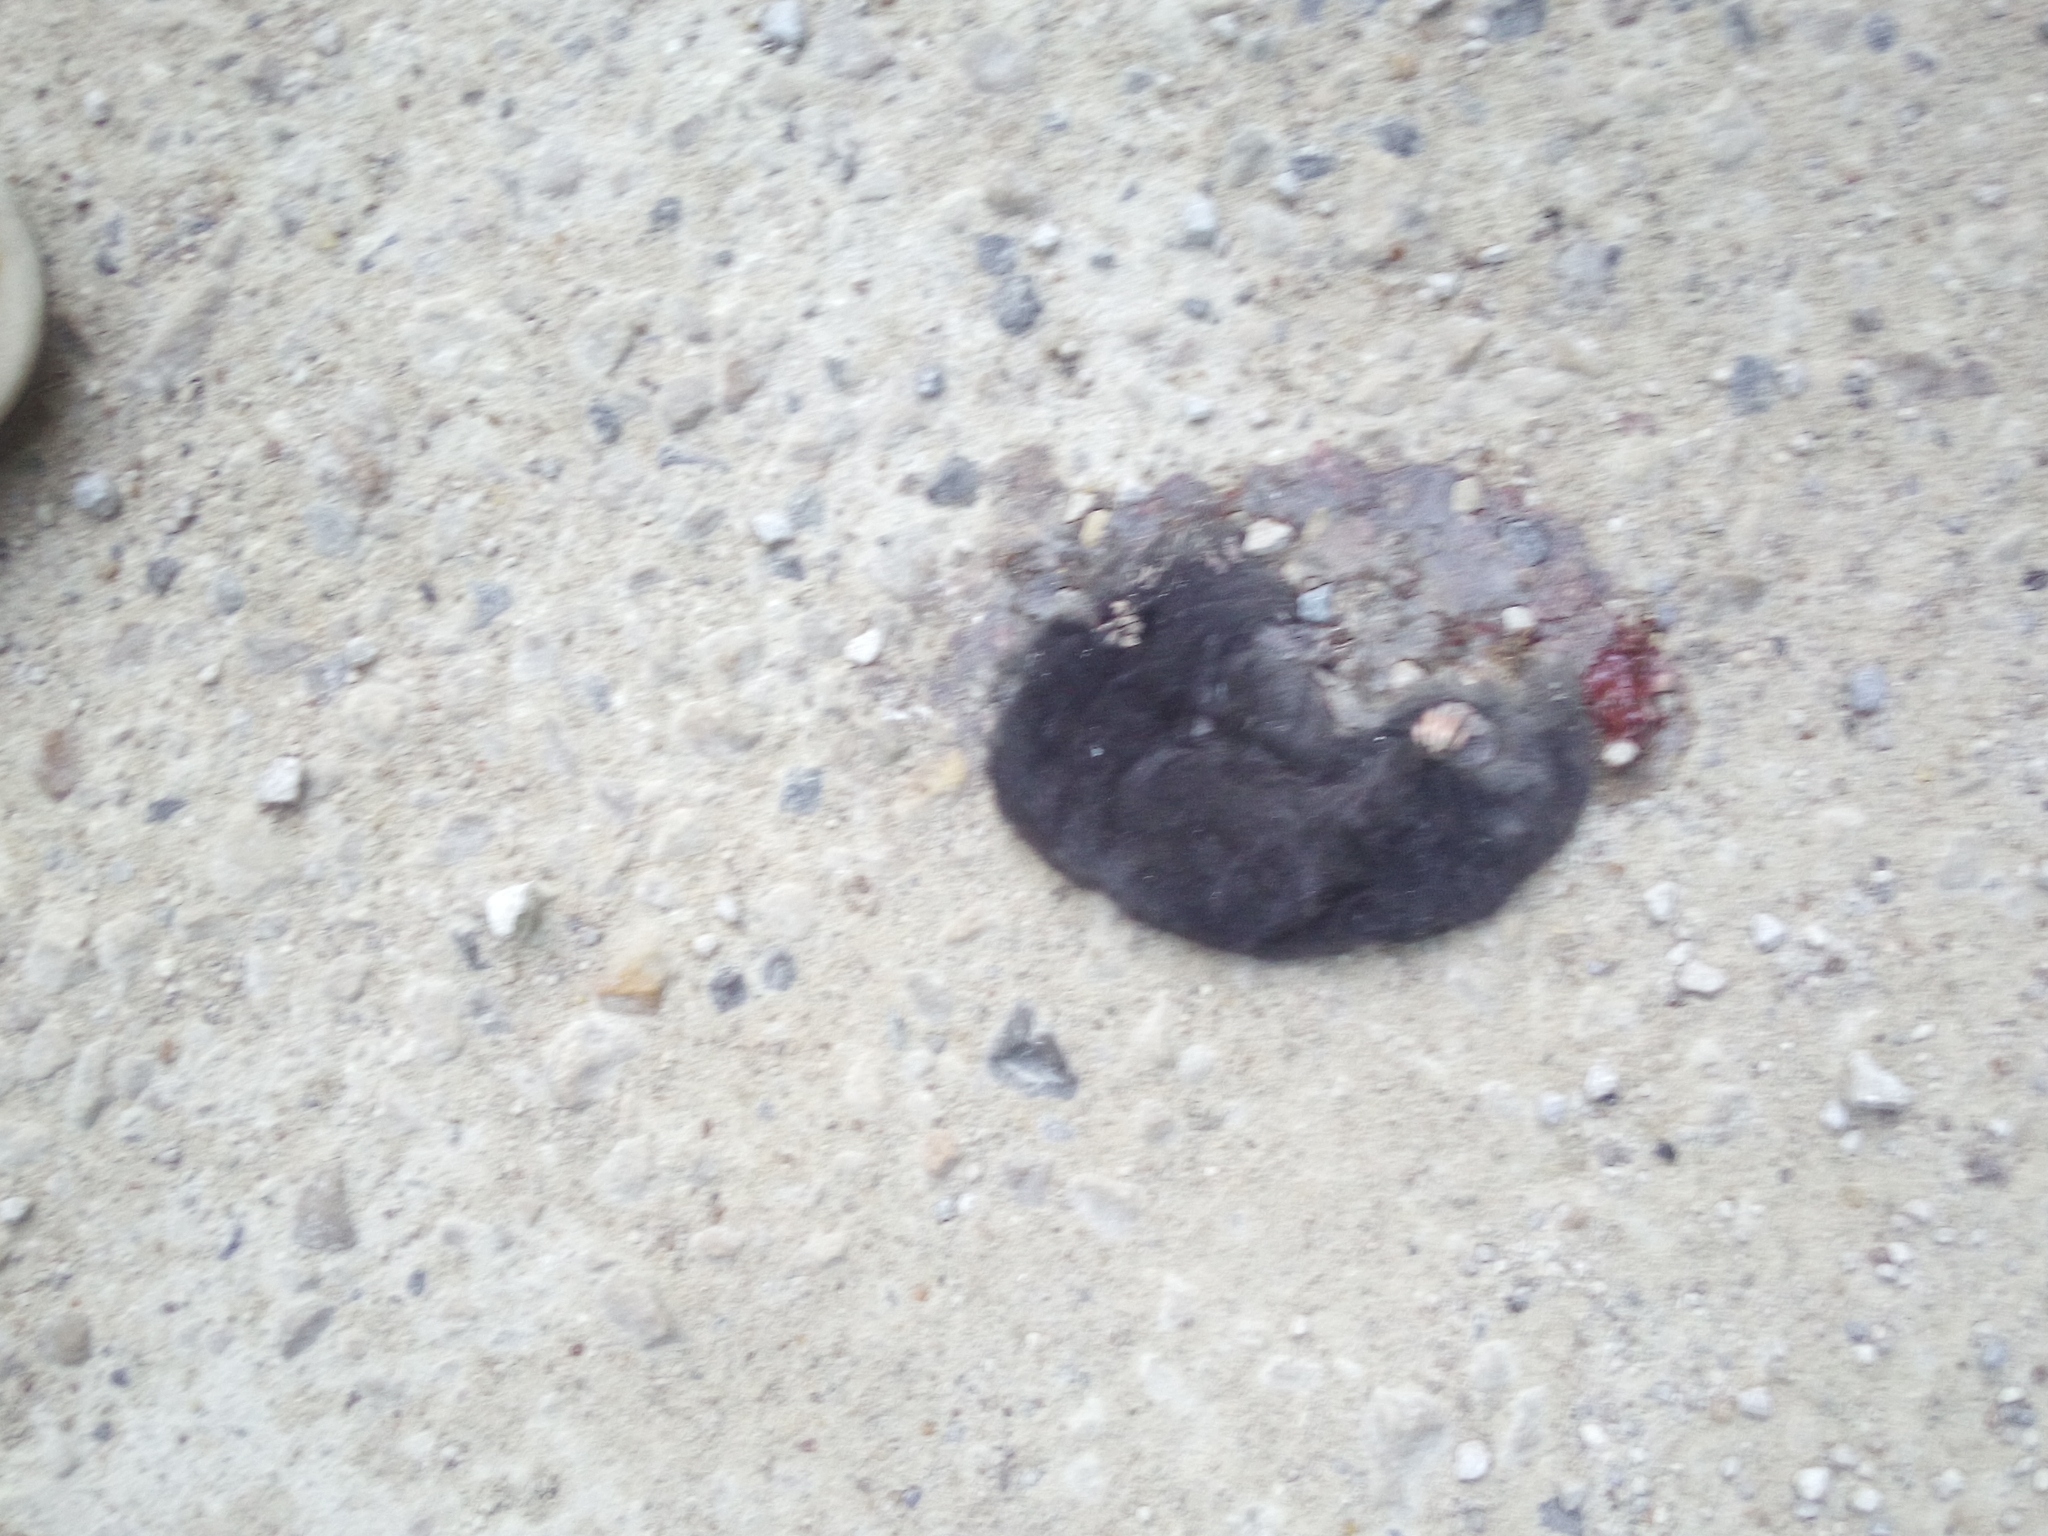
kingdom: Animalia
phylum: Chordata
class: Mammalia
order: Soricomorpha
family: Talpidae
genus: Talpa
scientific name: Talpa europaea
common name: European mole
